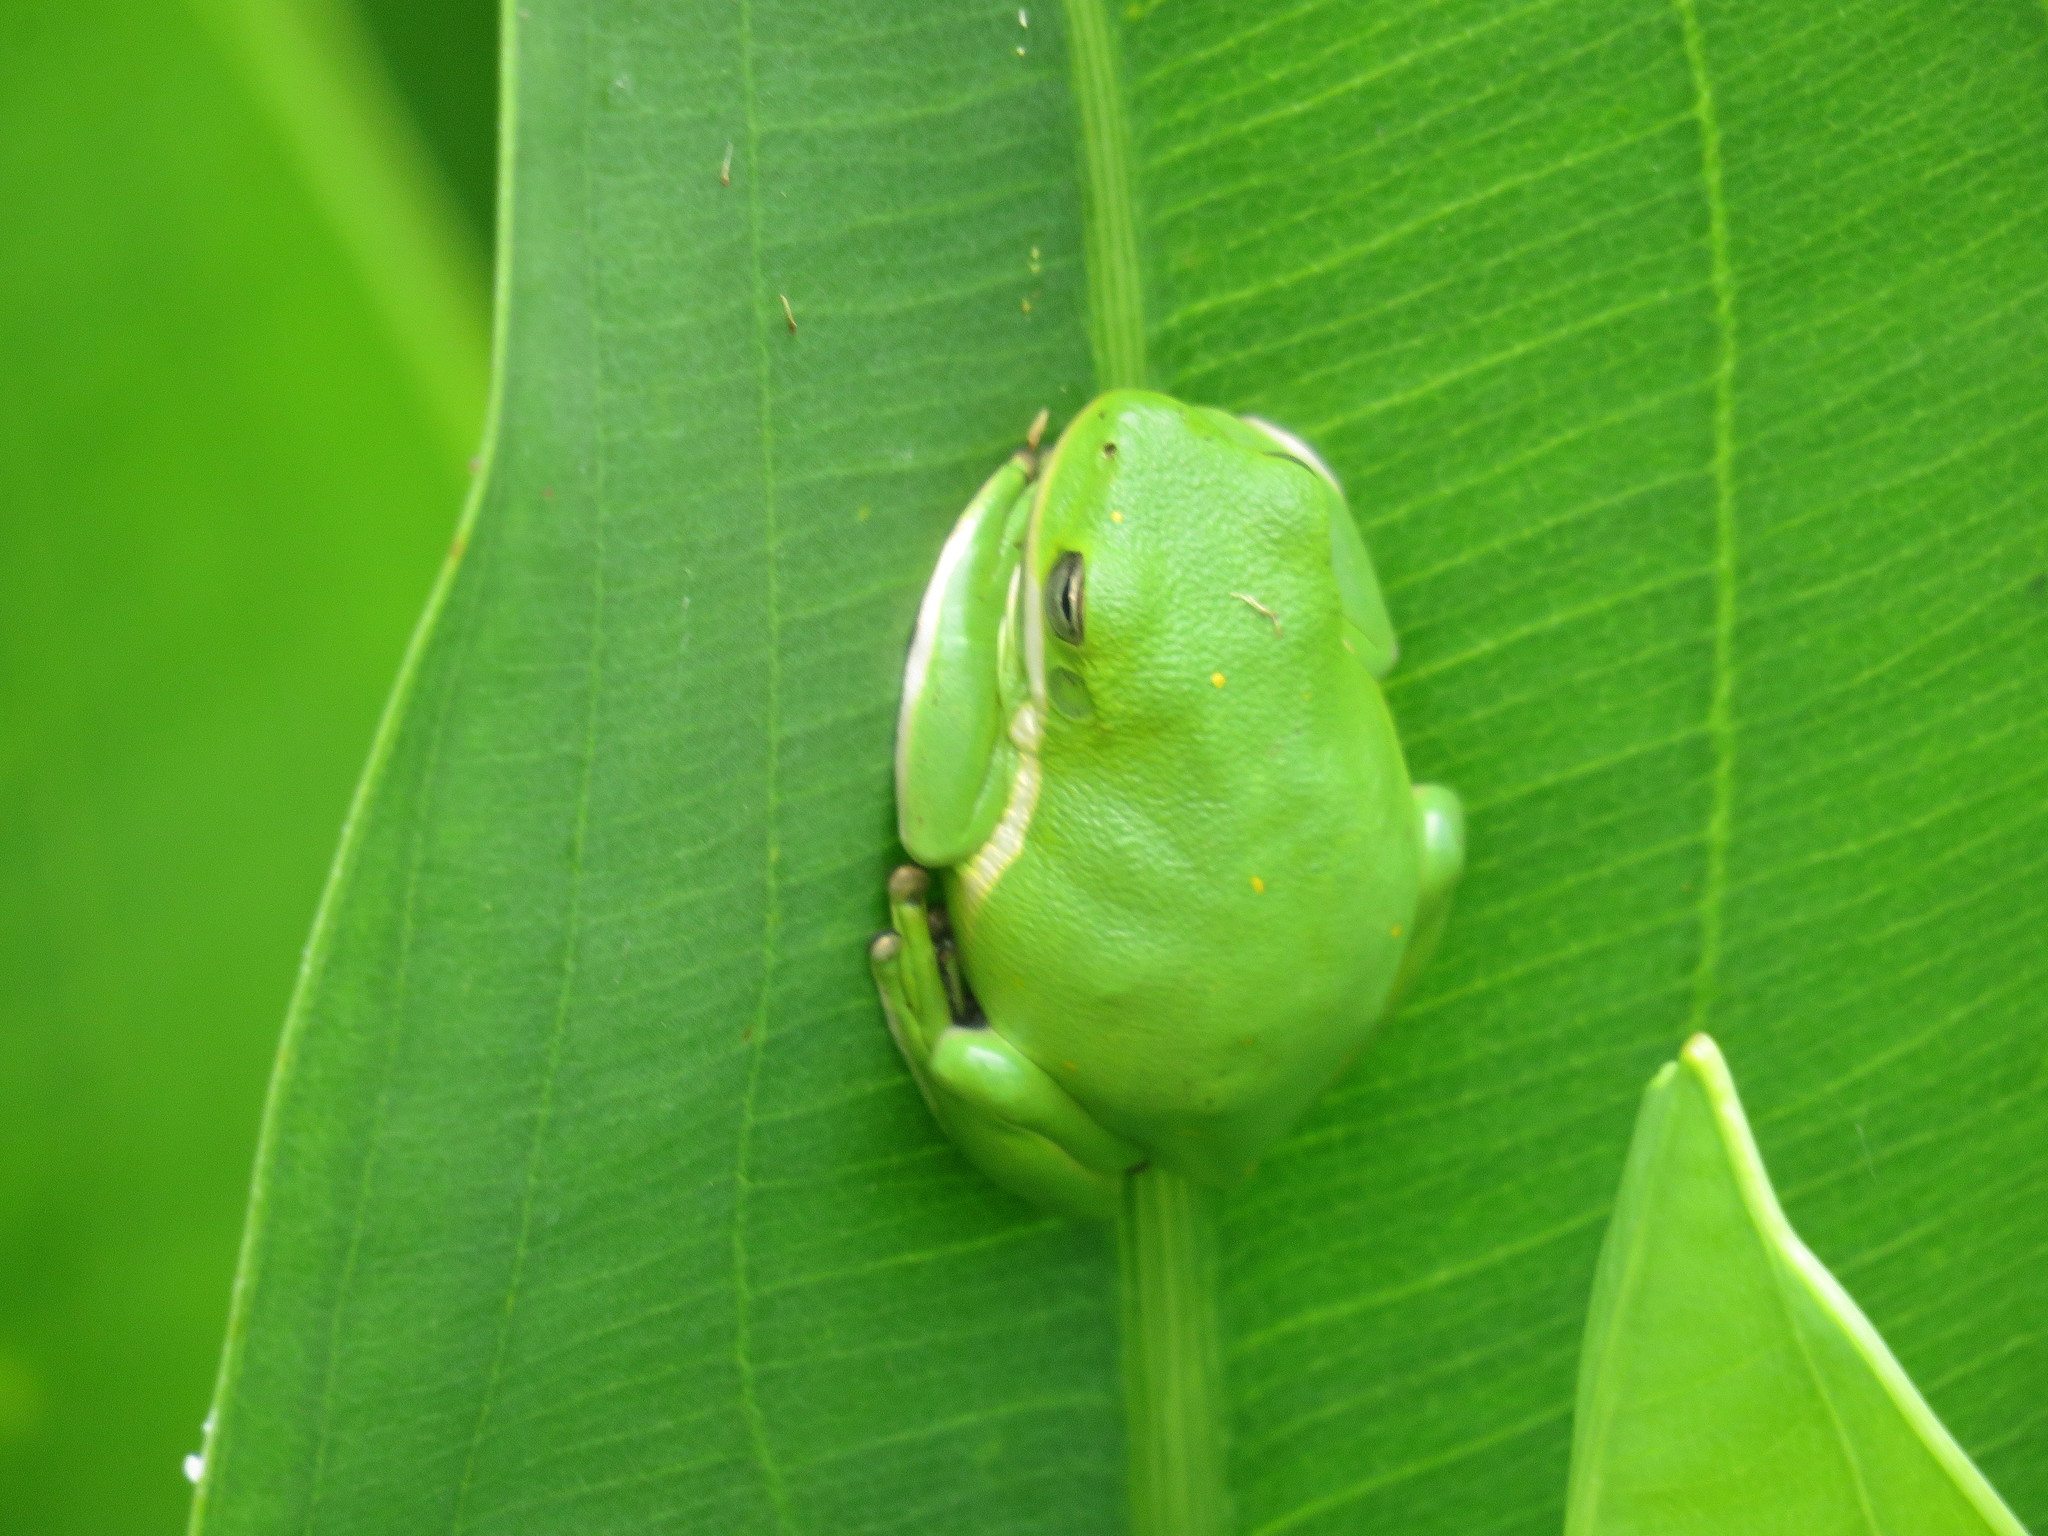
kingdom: Animalia
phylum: Chordata
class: Amphibia
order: Anura
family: Hylidae
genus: Dryophytes
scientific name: Dryophytes cinereus
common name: Green treefrog
